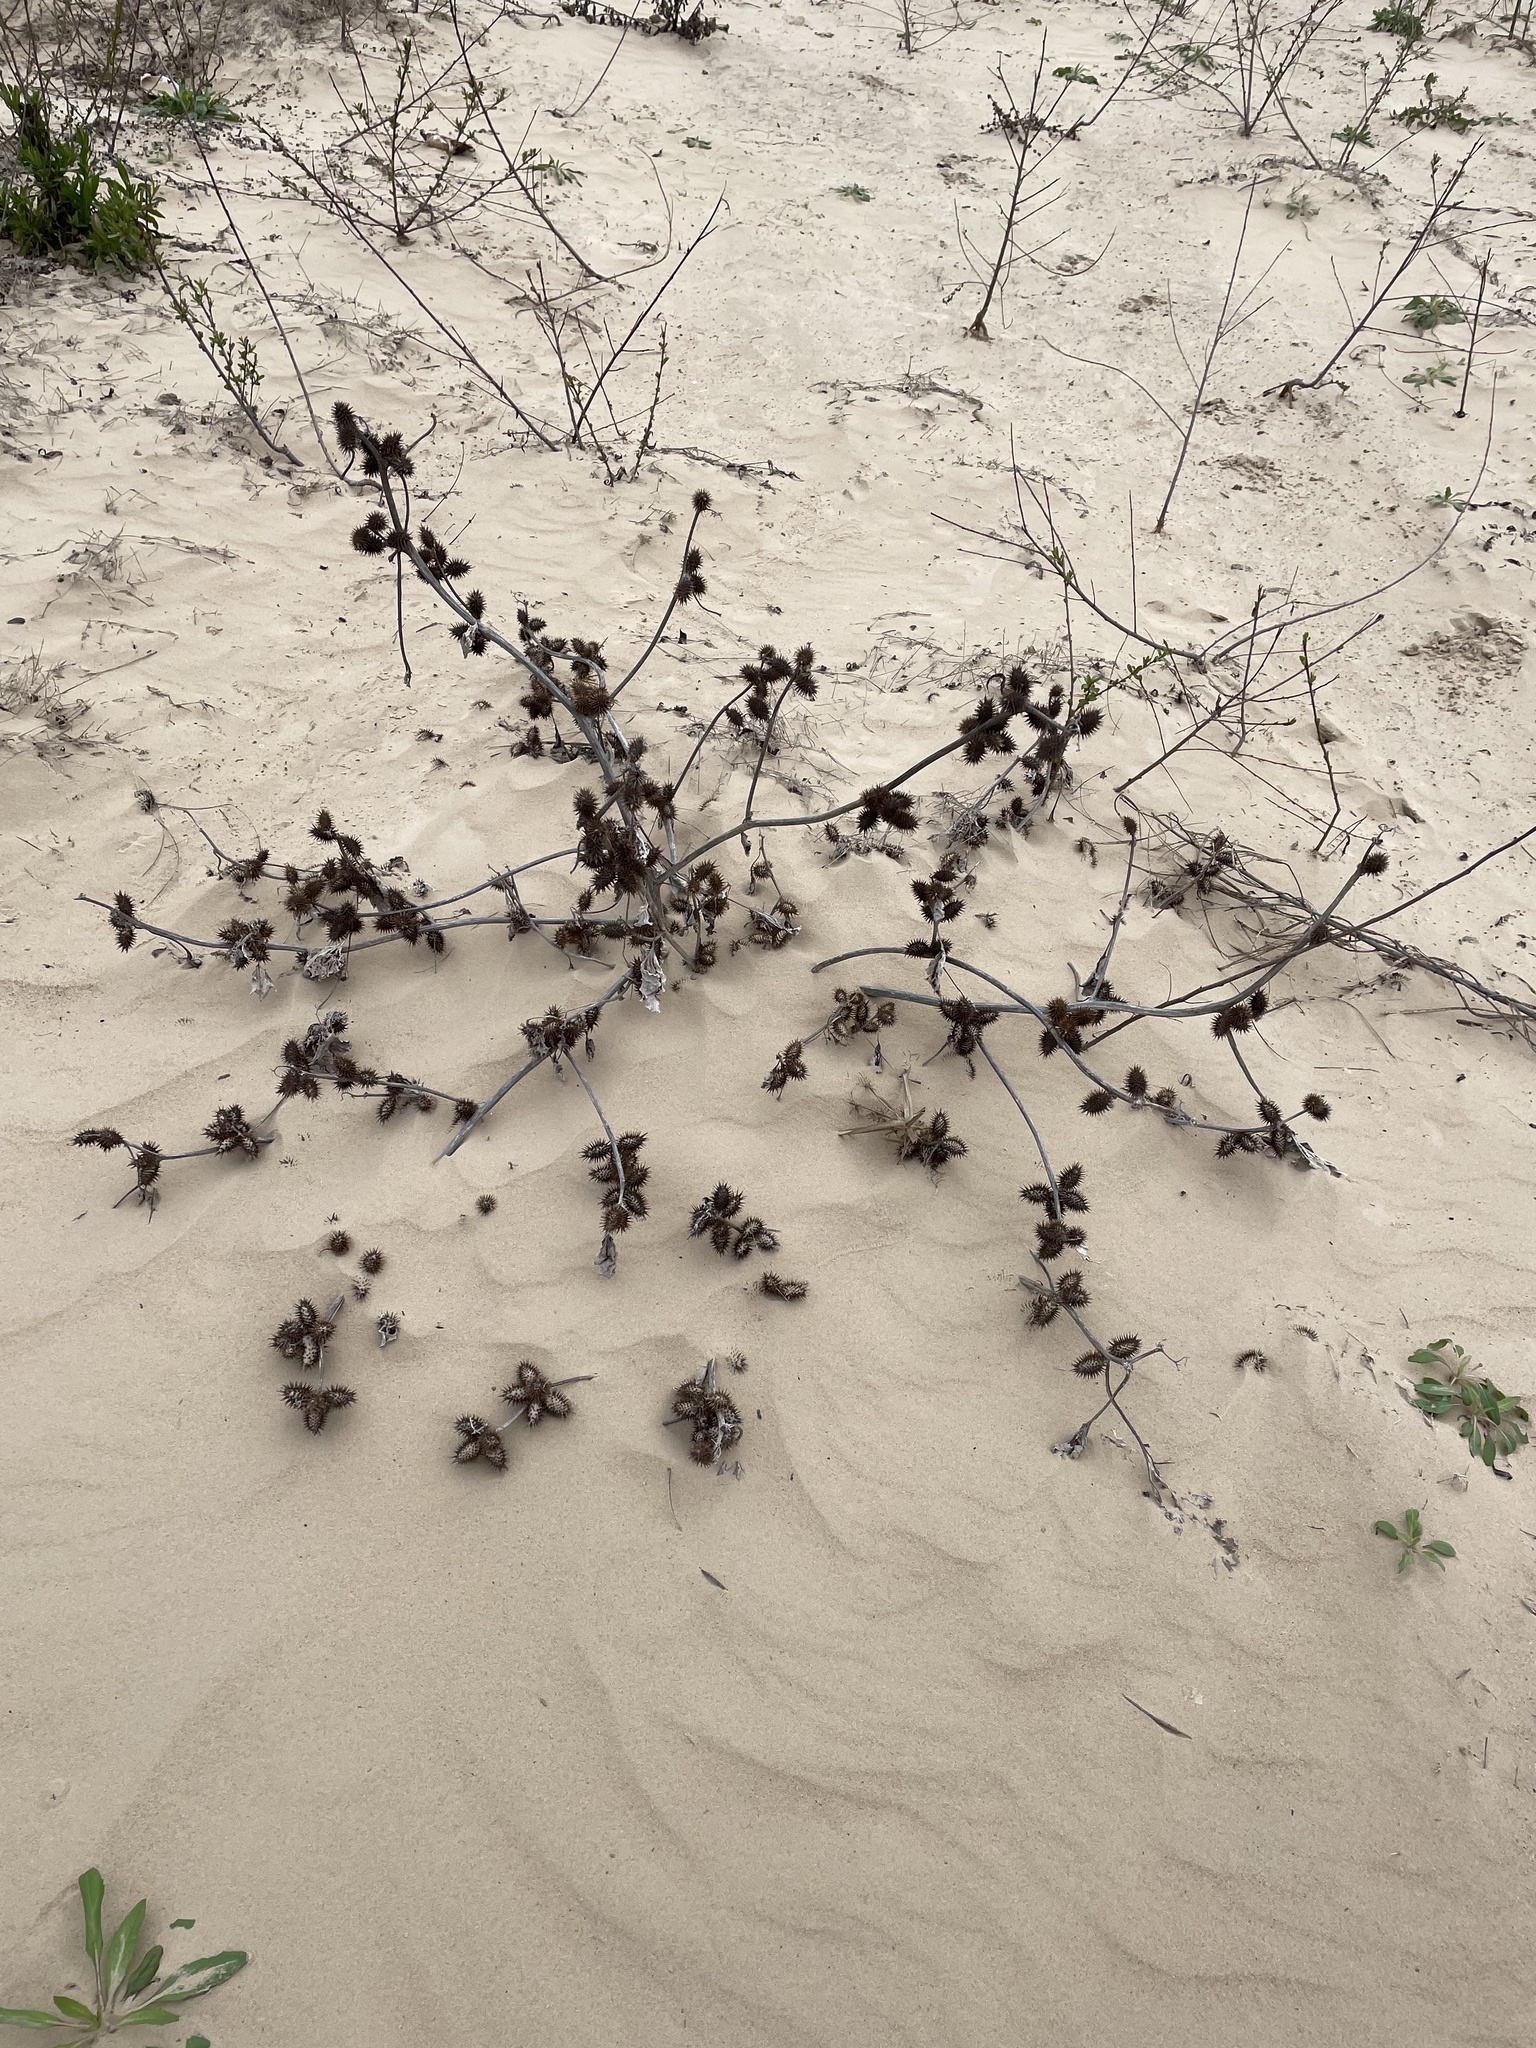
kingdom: Plantae
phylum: Tracheophyta
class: Magnoliopsida
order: Asterales
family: Asteraceae
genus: Xanthium
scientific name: Xanthium strumarium
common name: Rough cocklebur
